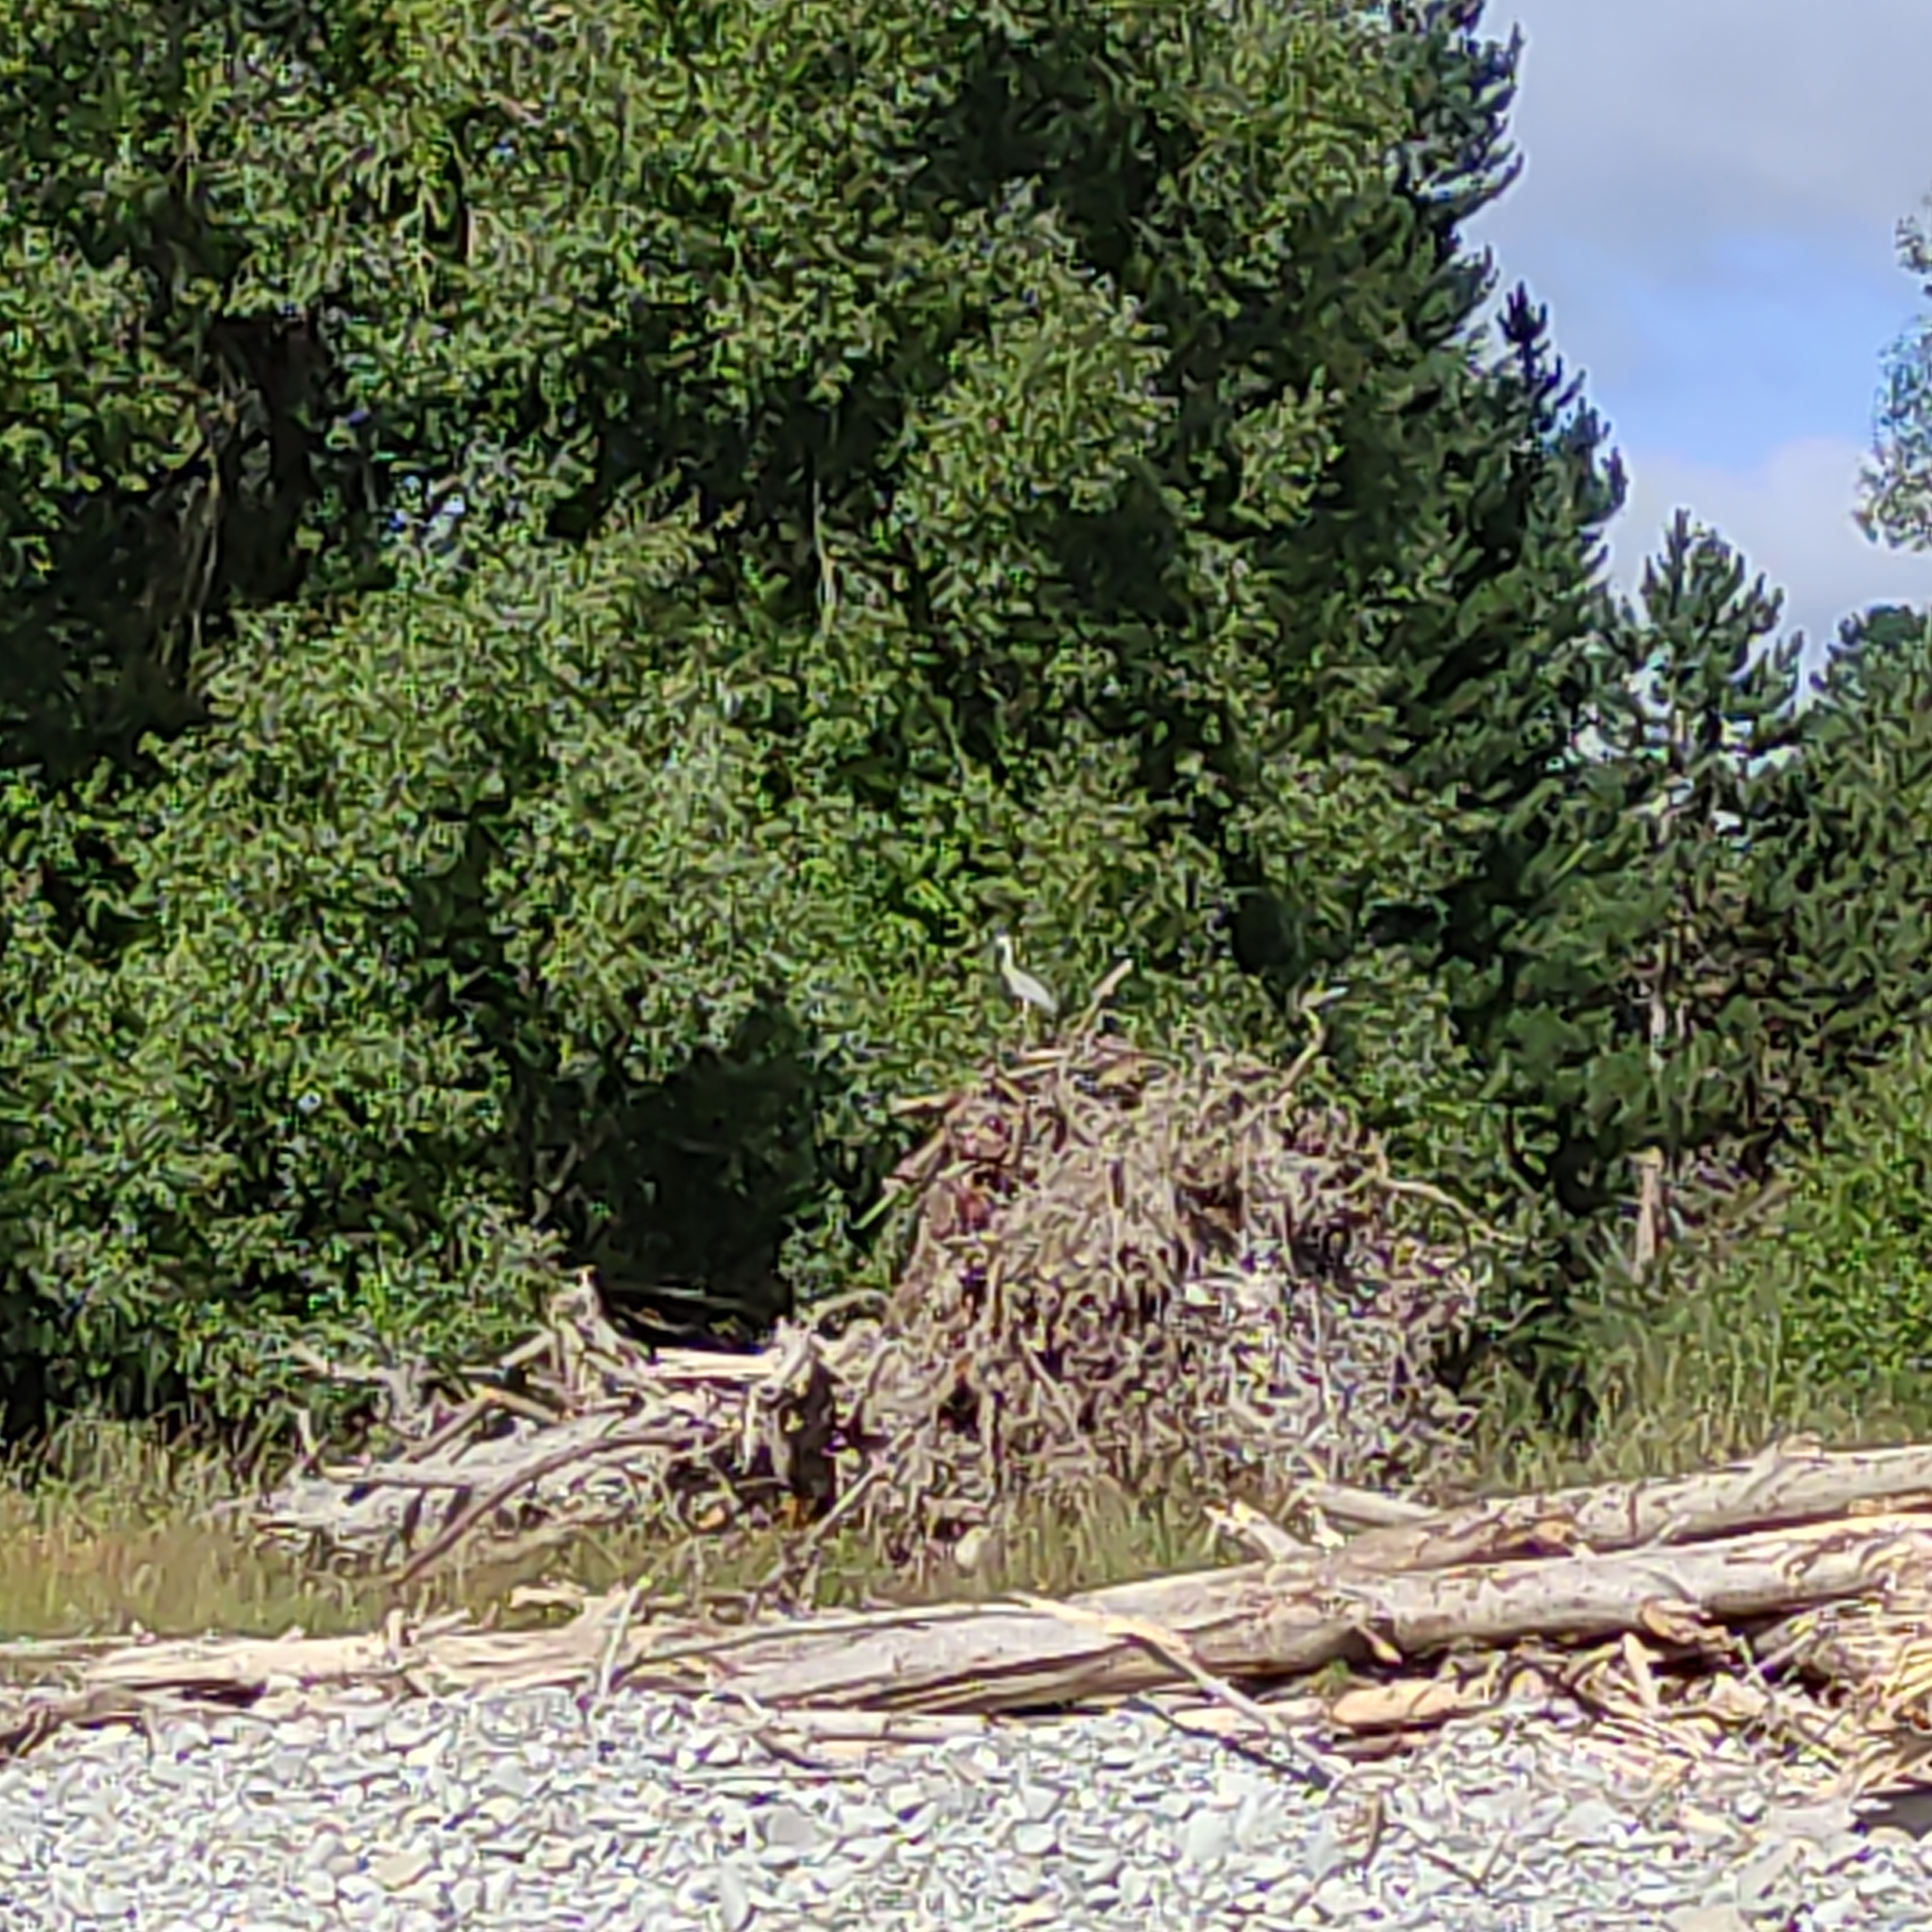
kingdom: Animalia
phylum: Chordata
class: Aves
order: Pelecaniformes
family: Ardeidae
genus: Egretta
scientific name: Egretta novaehollandiae
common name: White-faced heron
